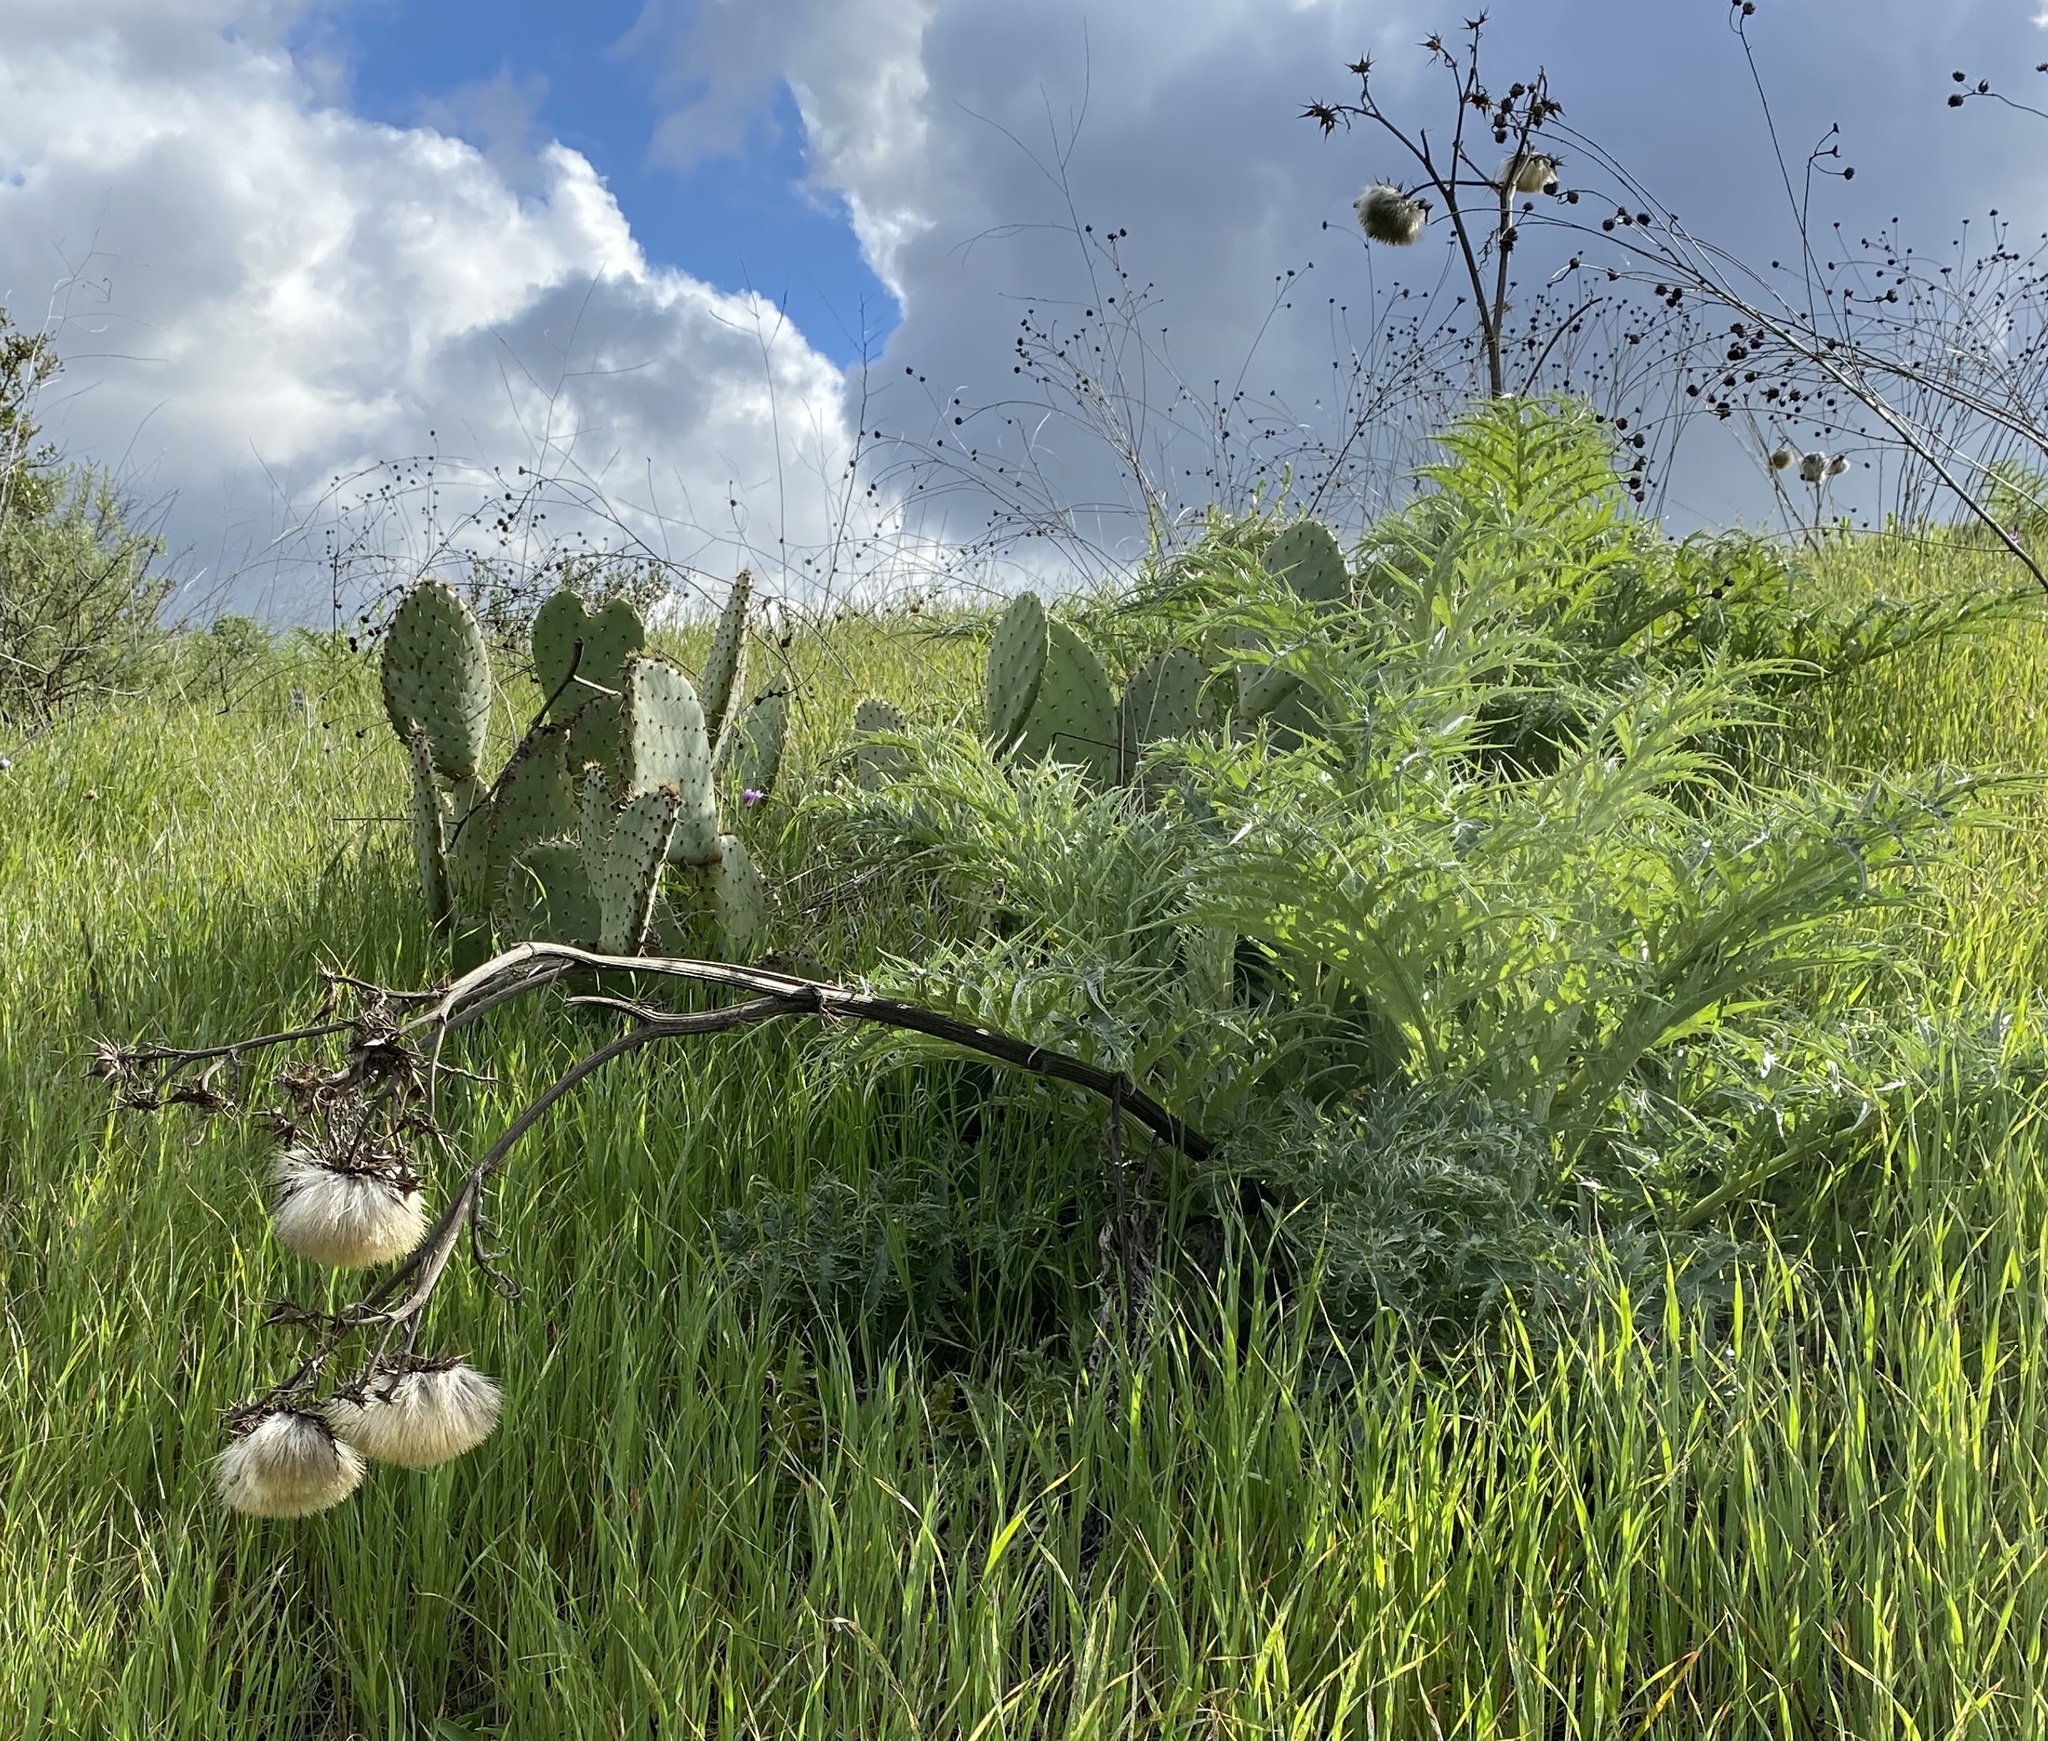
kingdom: Plantae
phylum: Tracheophyta
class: Magnoliopsida
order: Asterales
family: Asteraceae
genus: Cynara
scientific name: Cynara cardunculus
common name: Globe artichoke
